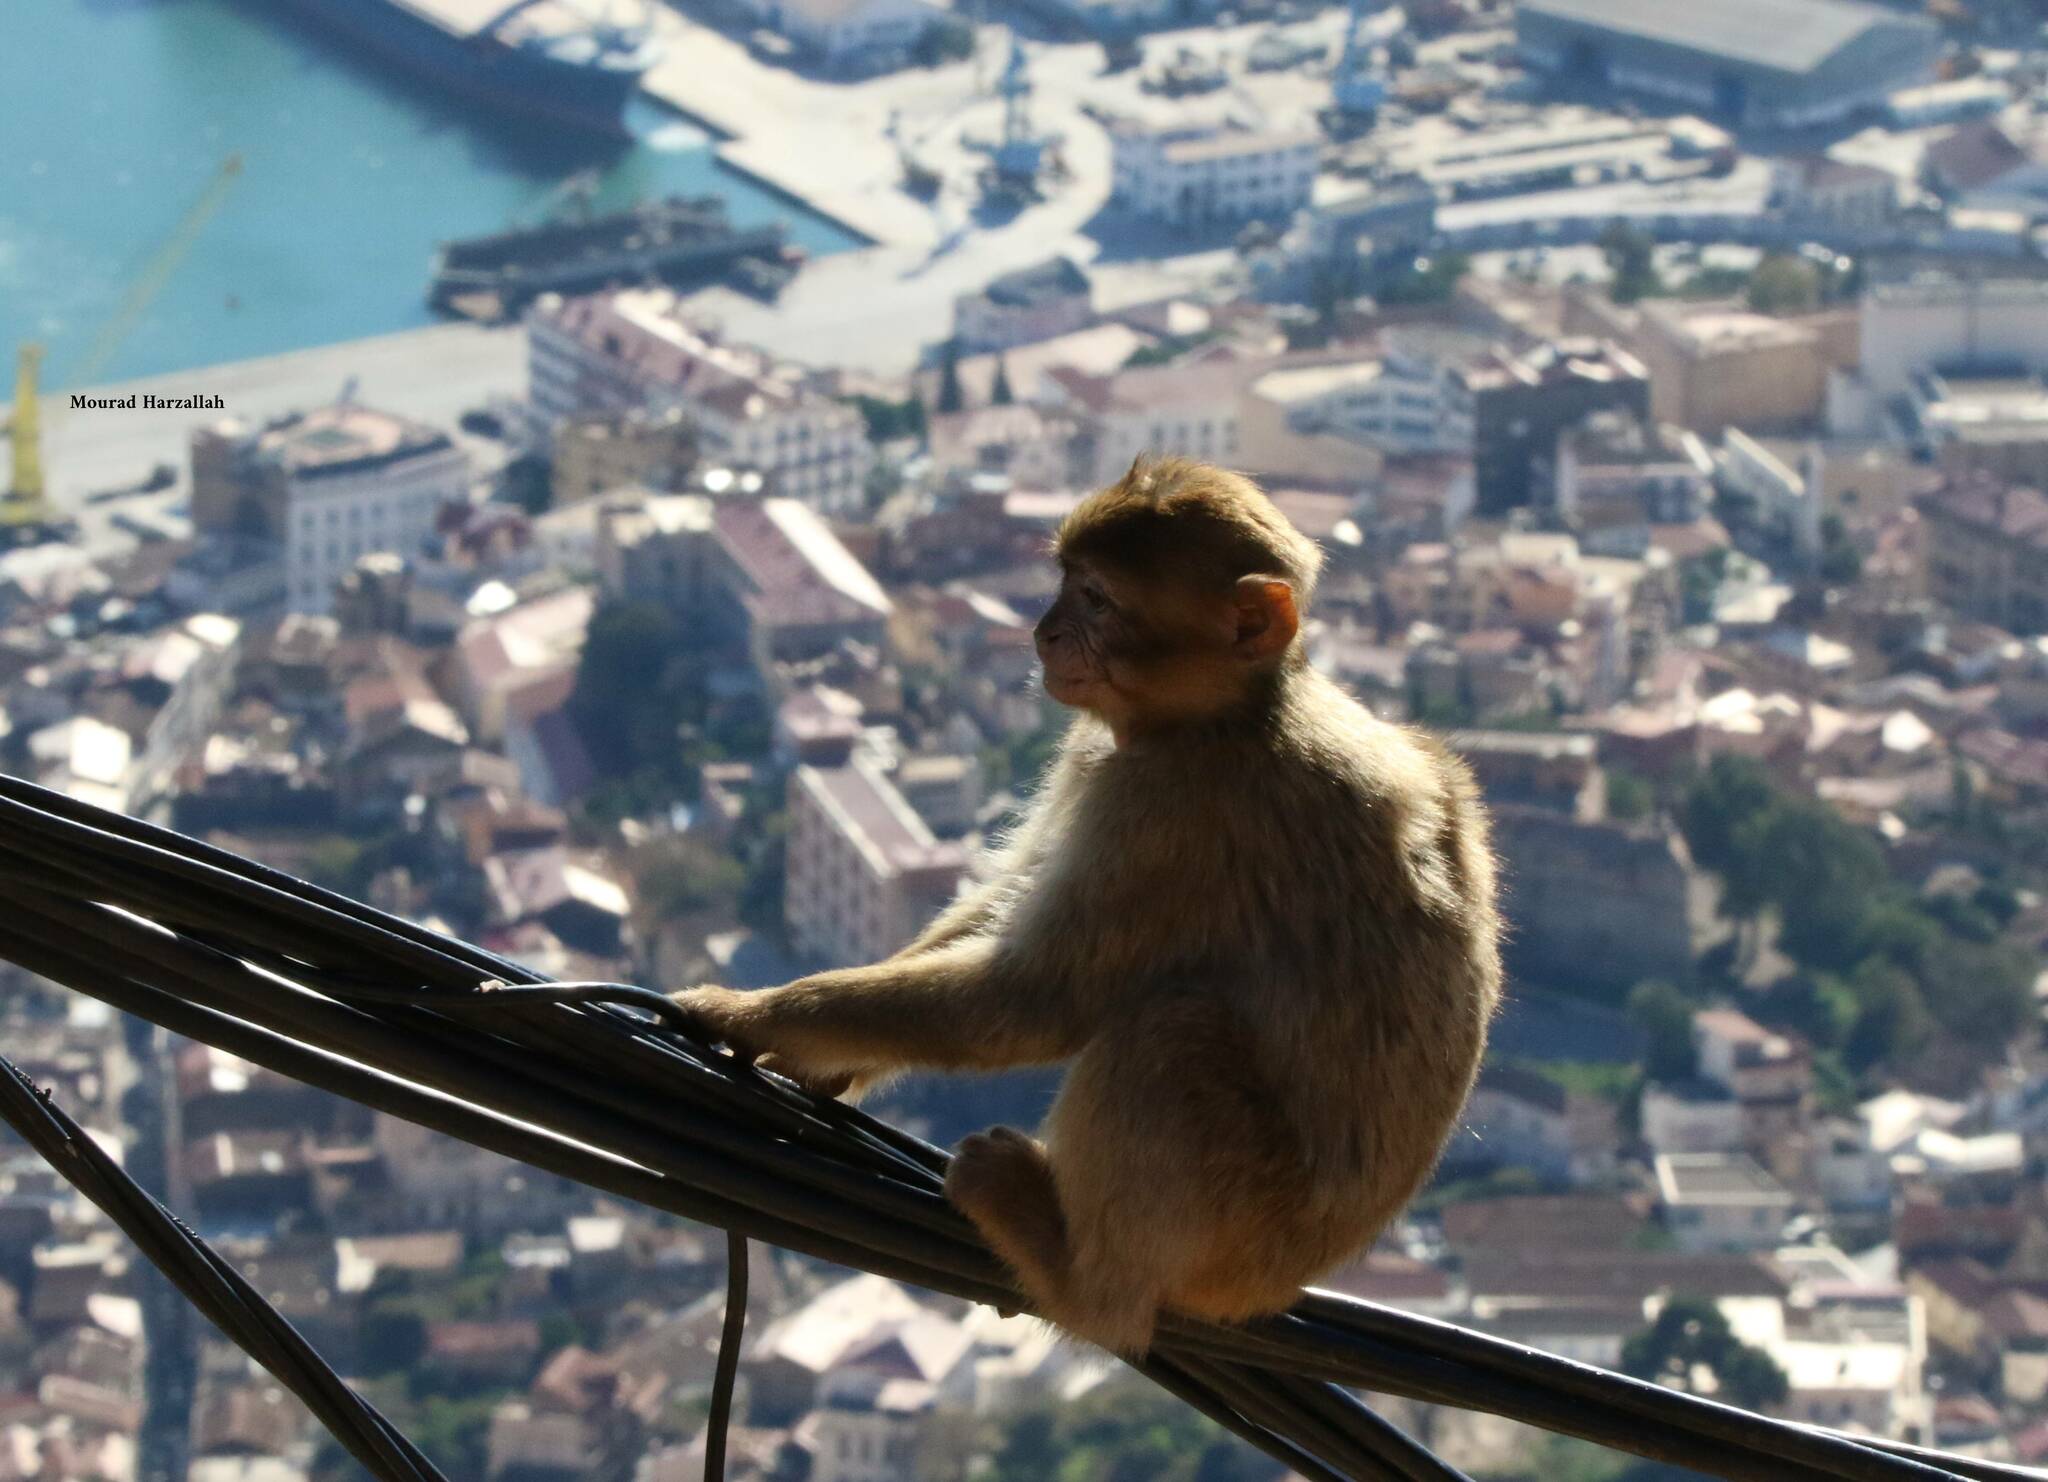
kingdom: Animalia
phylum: Chordata
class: Mammalia
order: Primates
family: Cercopithecidae
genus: Macaca
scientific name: Macaca sylvanus
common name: Barbary macaque
